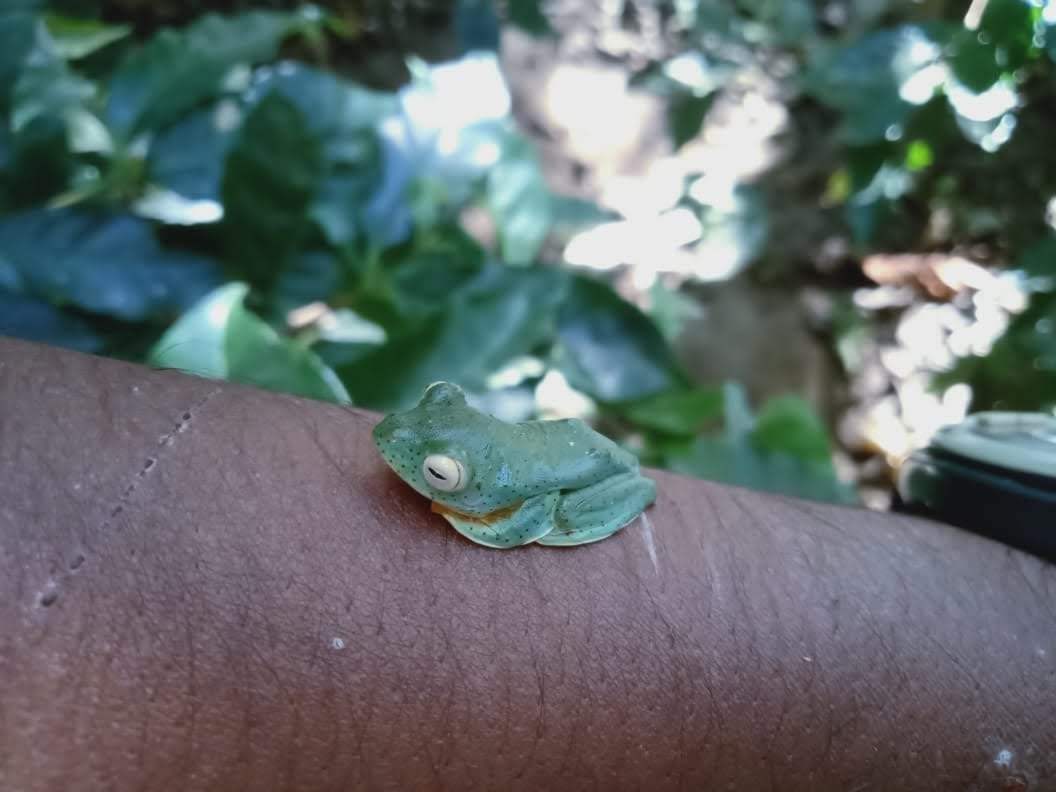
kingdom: Animalia
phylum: Chordata
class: Amphibia
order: Anura
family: Rhacophoridae
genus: Rhacophorus
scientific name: Rhacophorus malabaricus
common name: Malabar gliding frog
